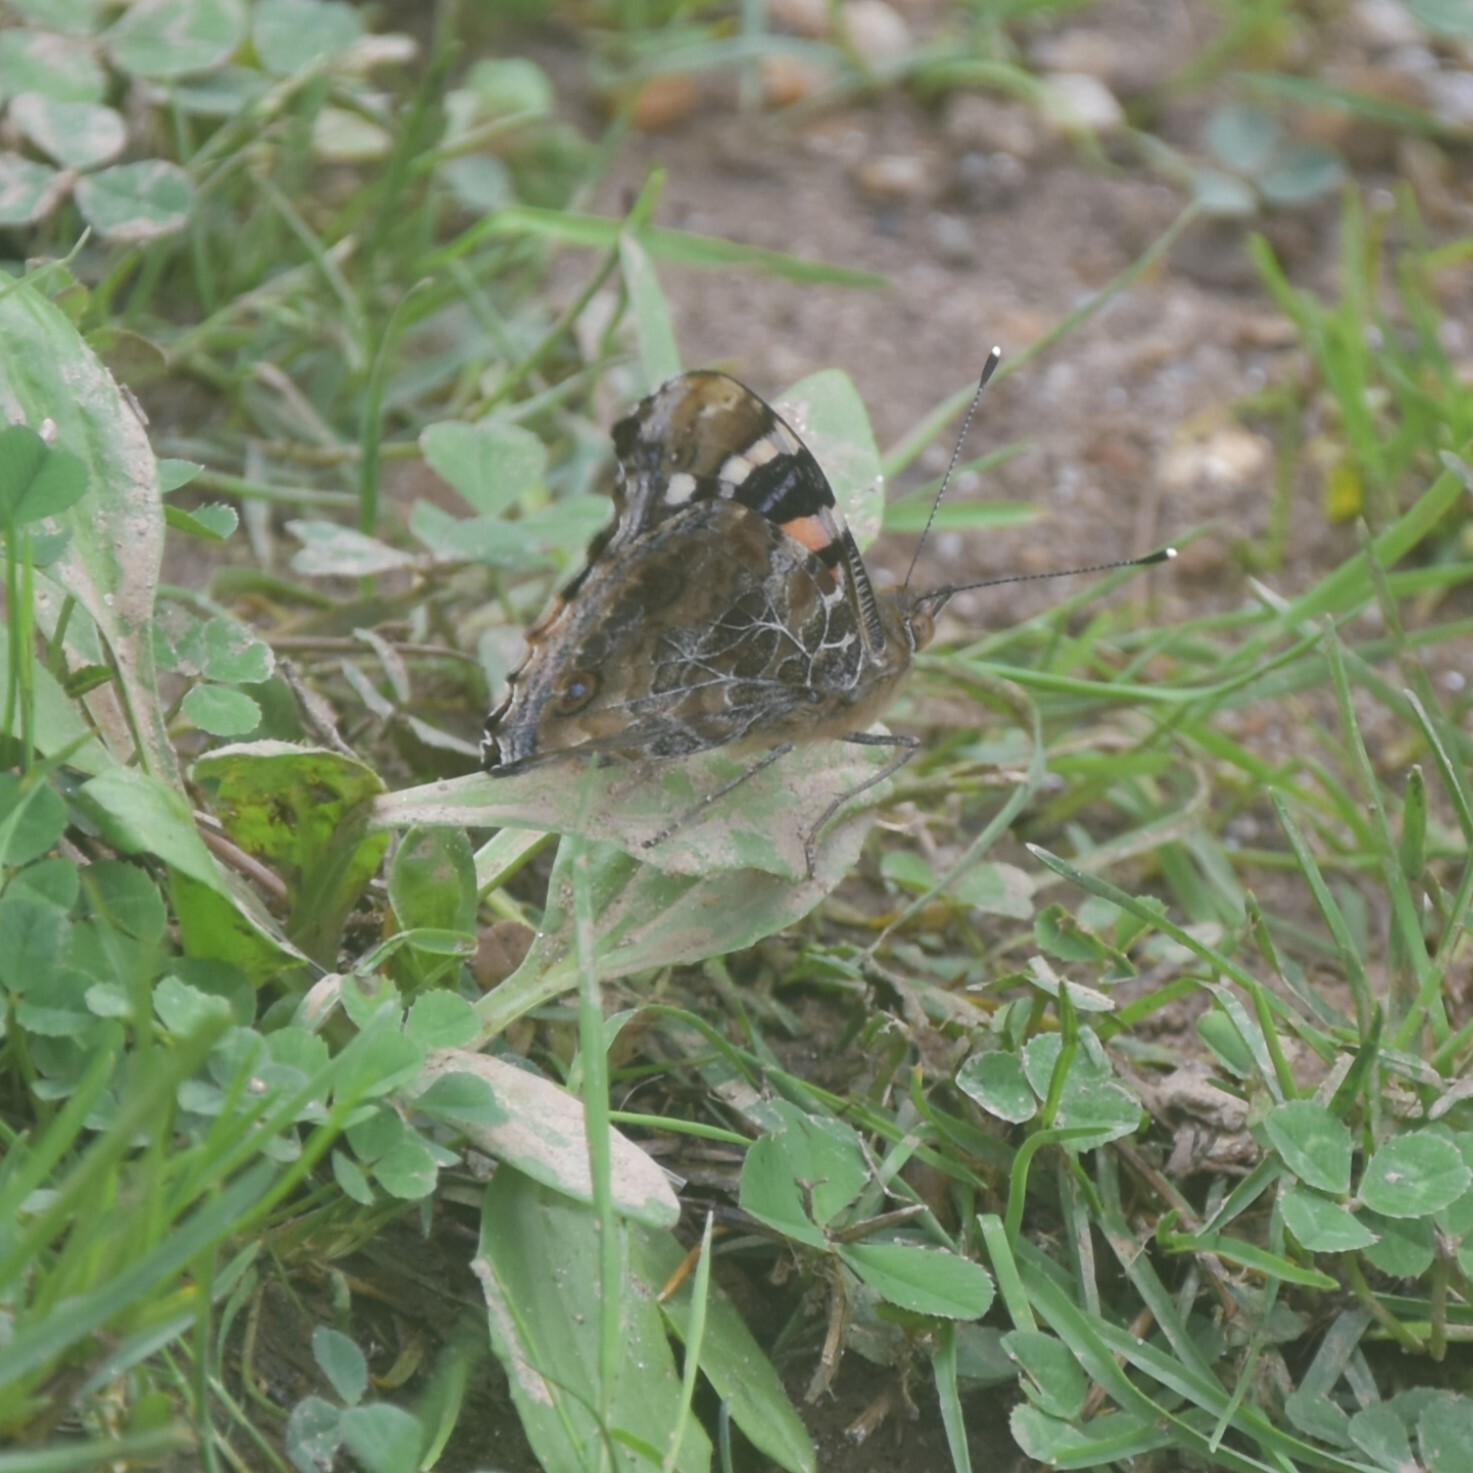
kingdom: Animalia
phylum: Arthropoda
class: Insecta
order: Lepidoptera
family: Nymphalidae
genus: Vanessa
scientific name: Vanessa indica
